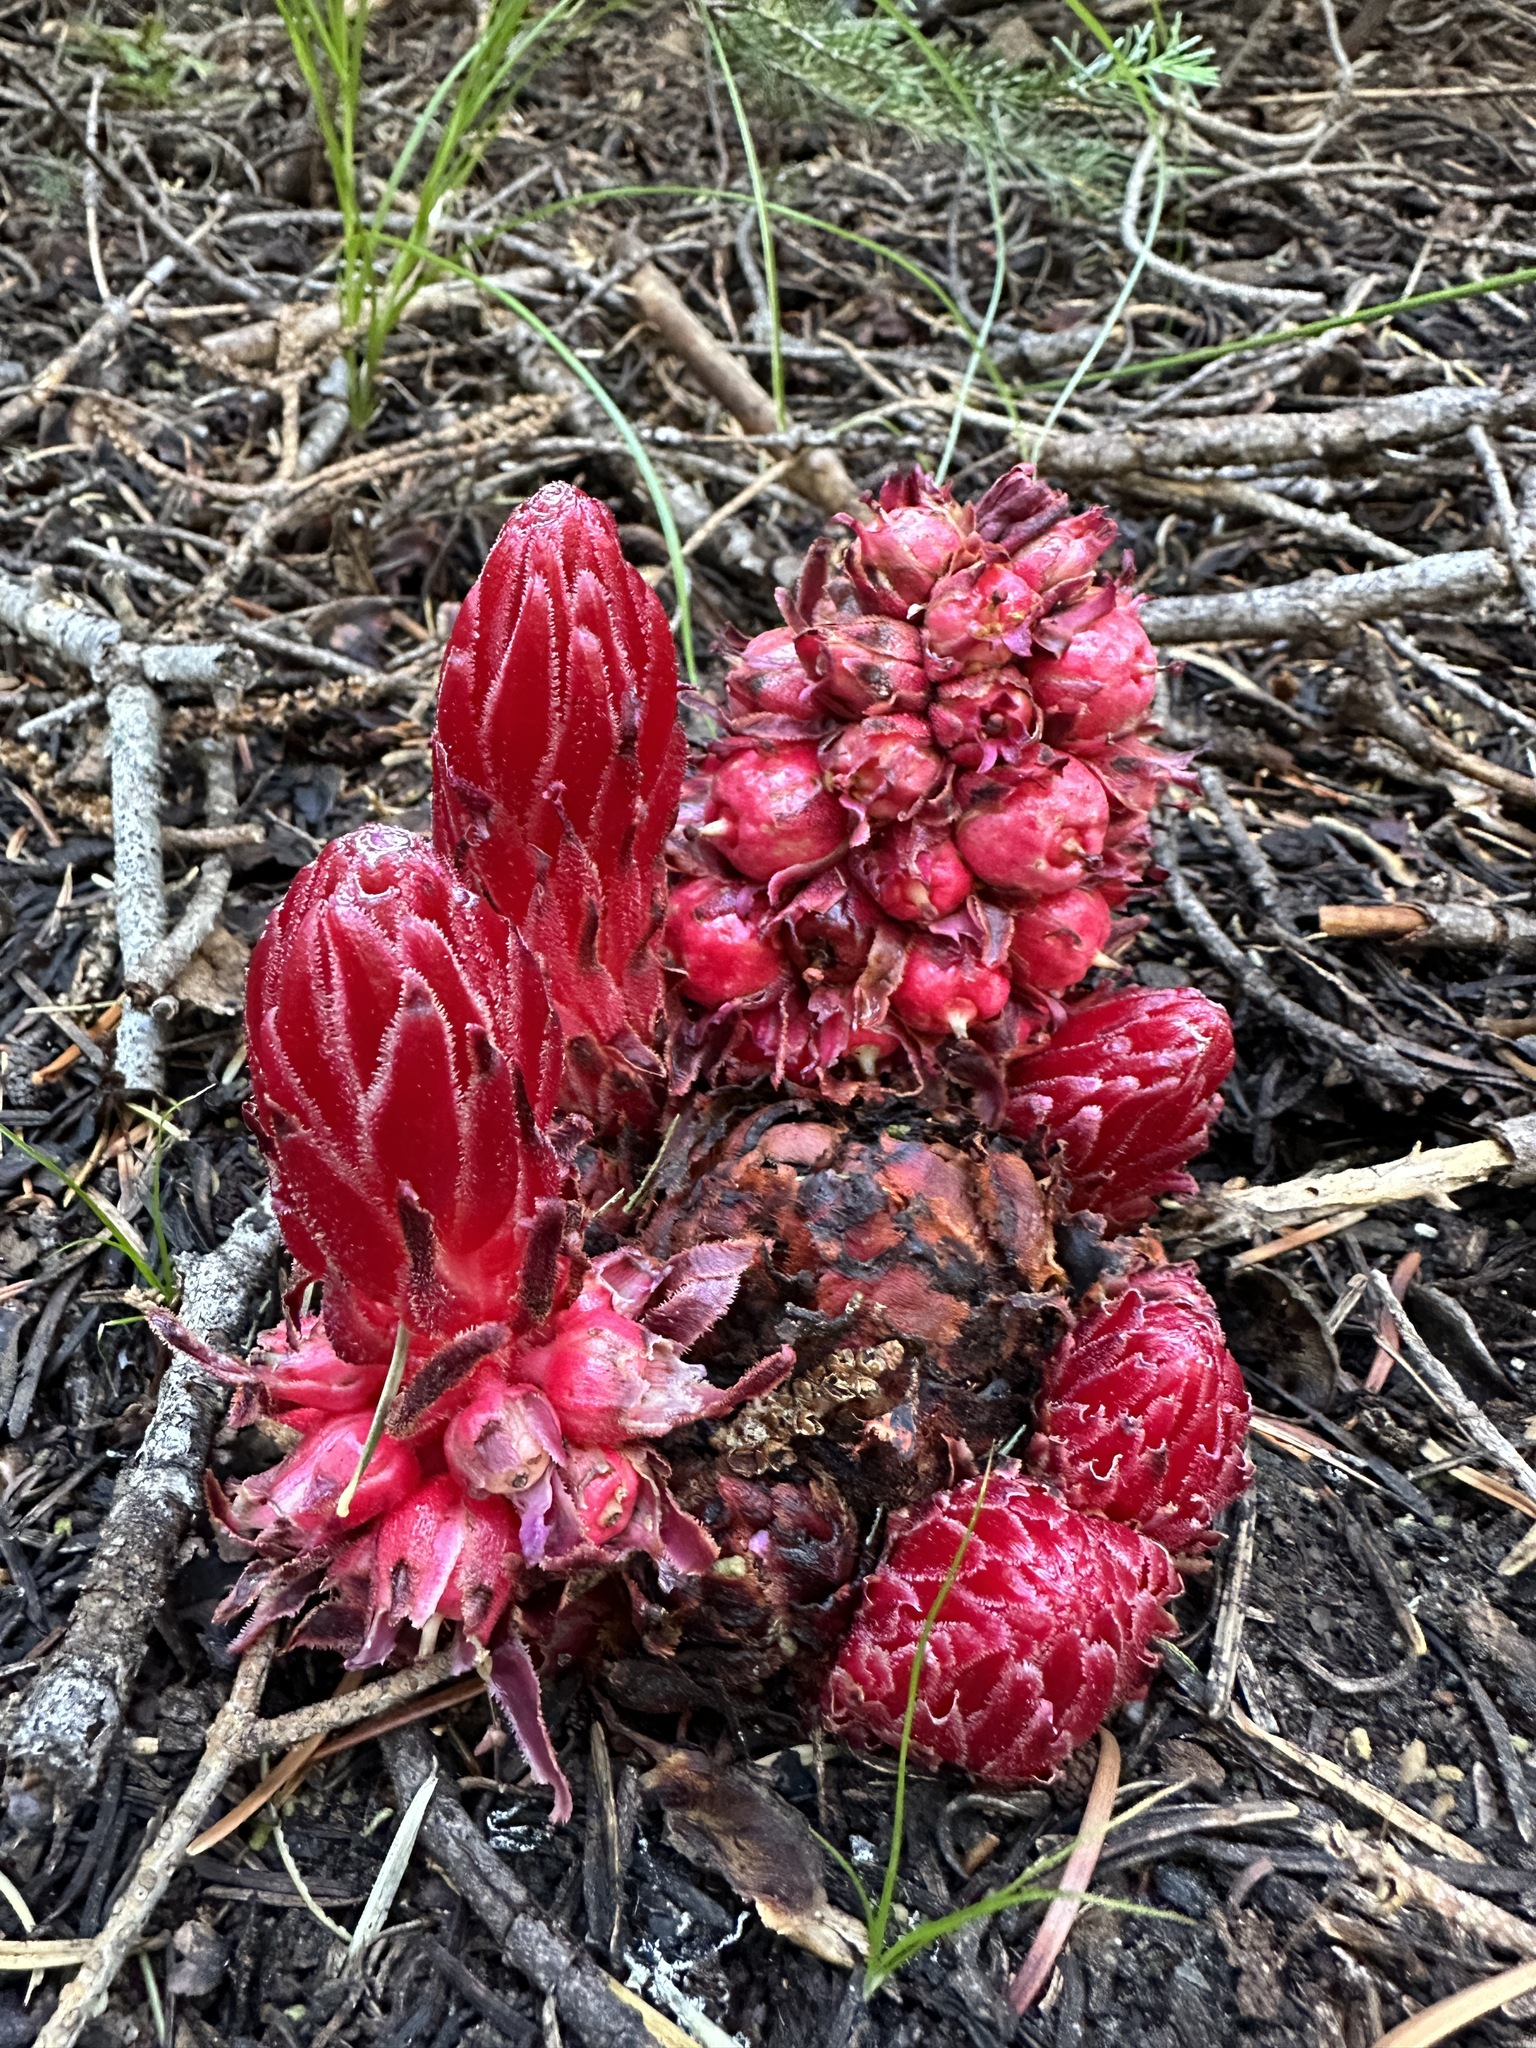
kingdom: Plantae
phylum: Tracheophyta
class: Magnoliopsida
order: Ericales
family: Ericaceae
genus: Sarcodes
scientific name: Sarcodes sanguinea
